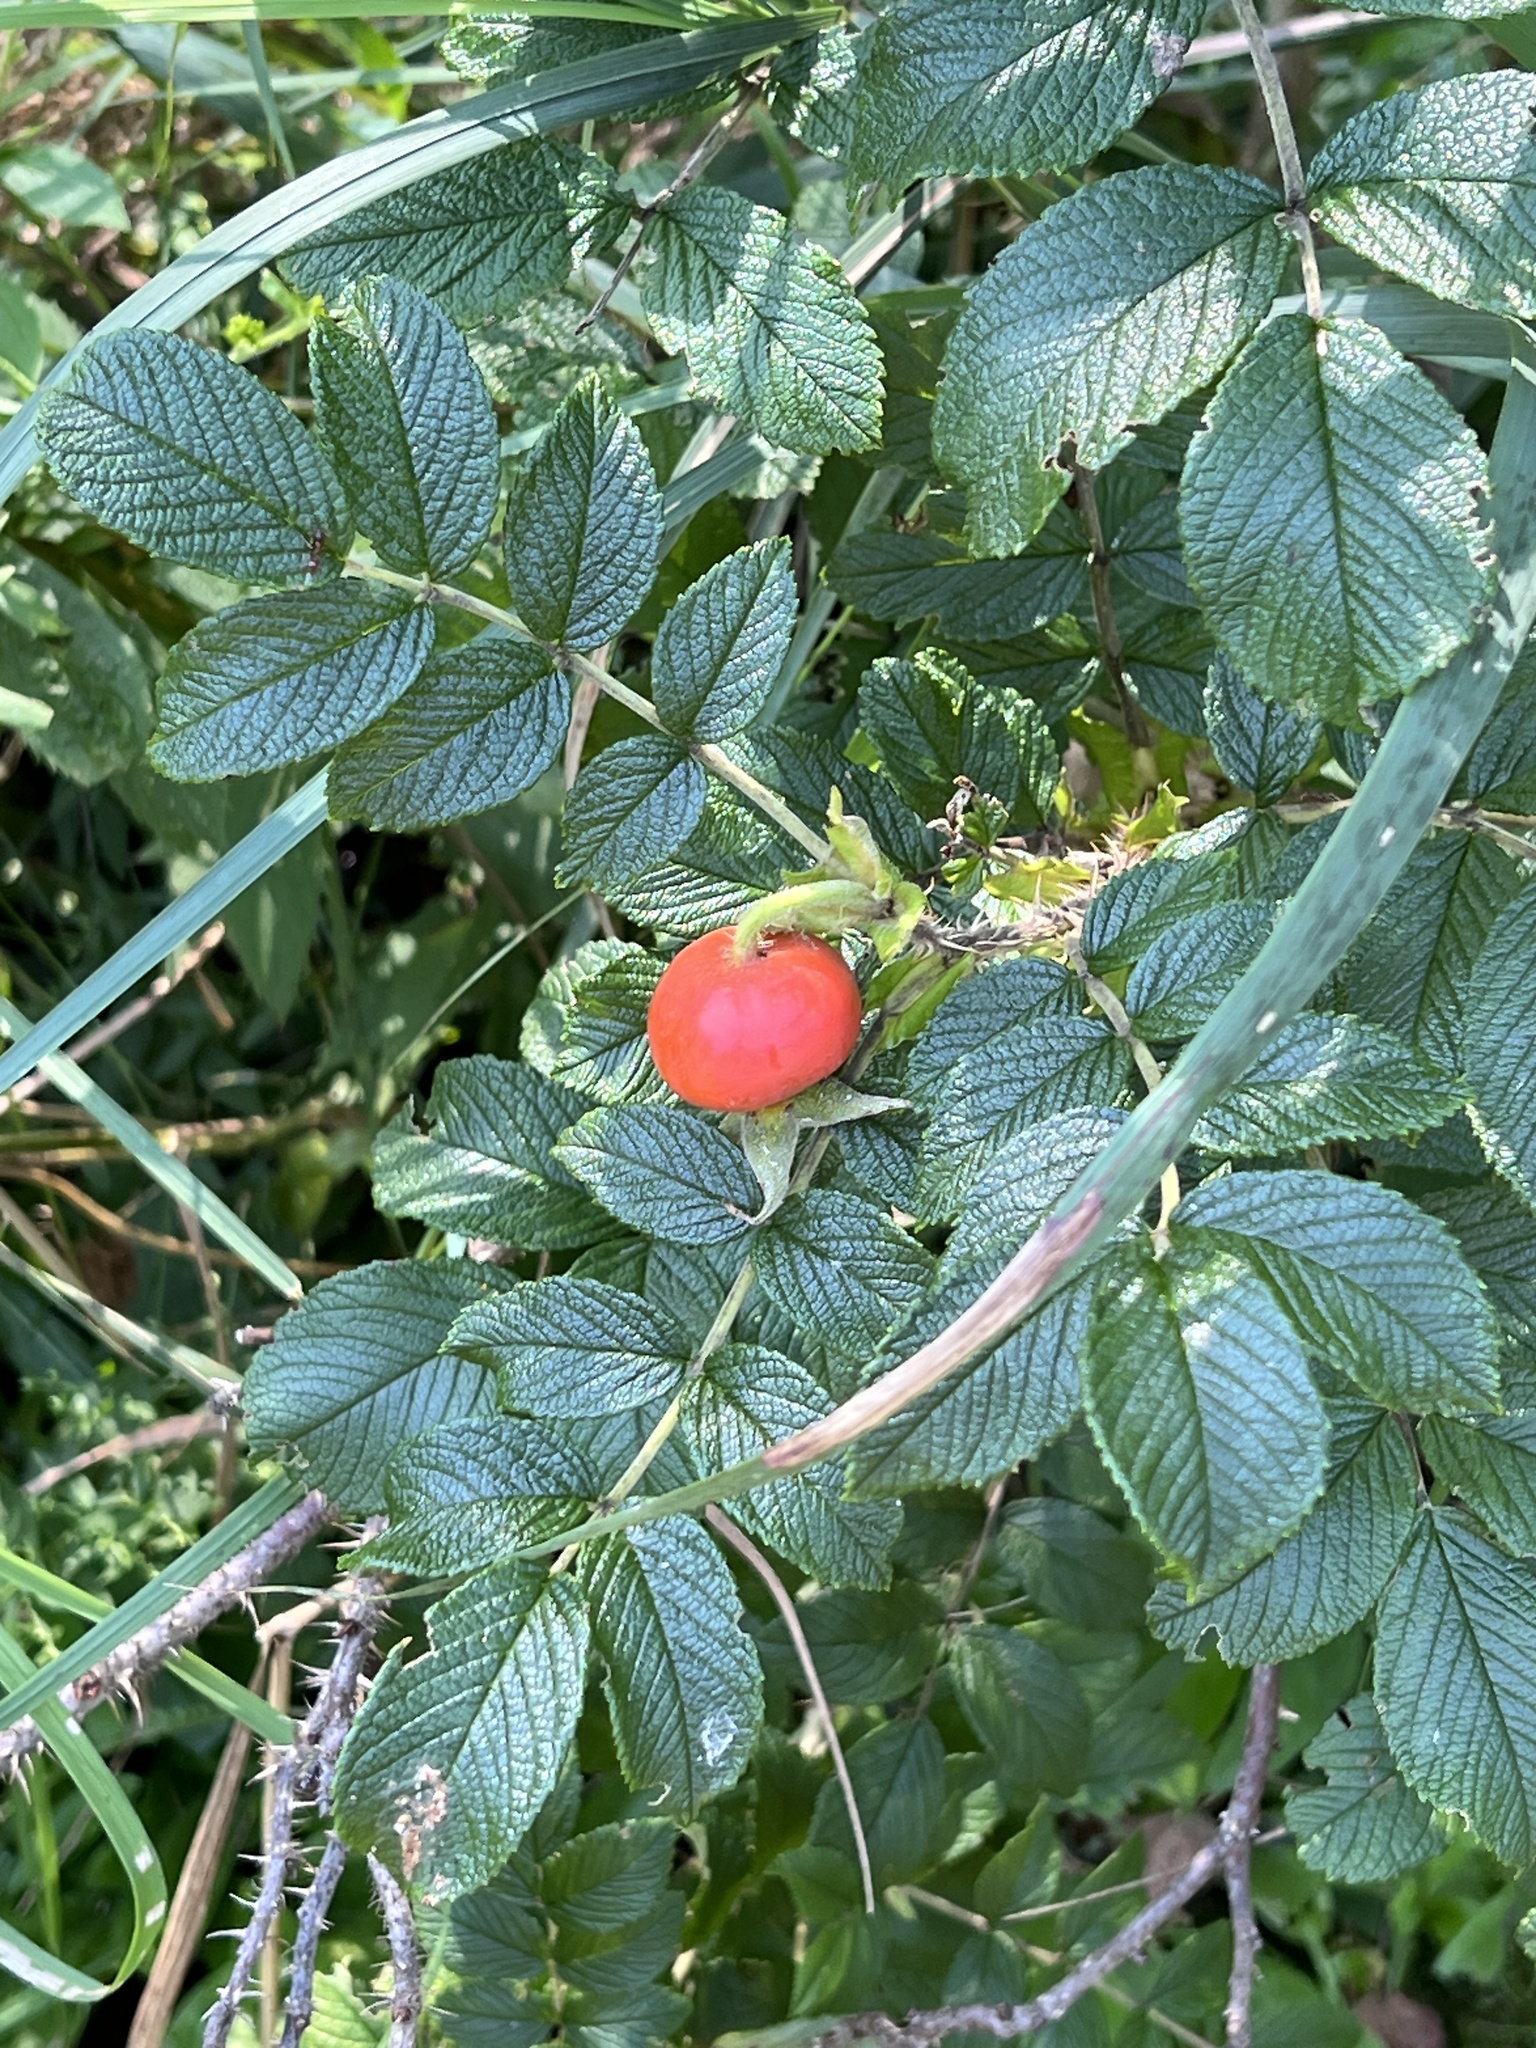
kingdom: Plantae
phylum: Tracheophyta
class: Magnoliopsida
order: Rosales
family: Rosaceae
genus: Rosa
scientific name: Rosa rugosa
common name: Japanese rose
